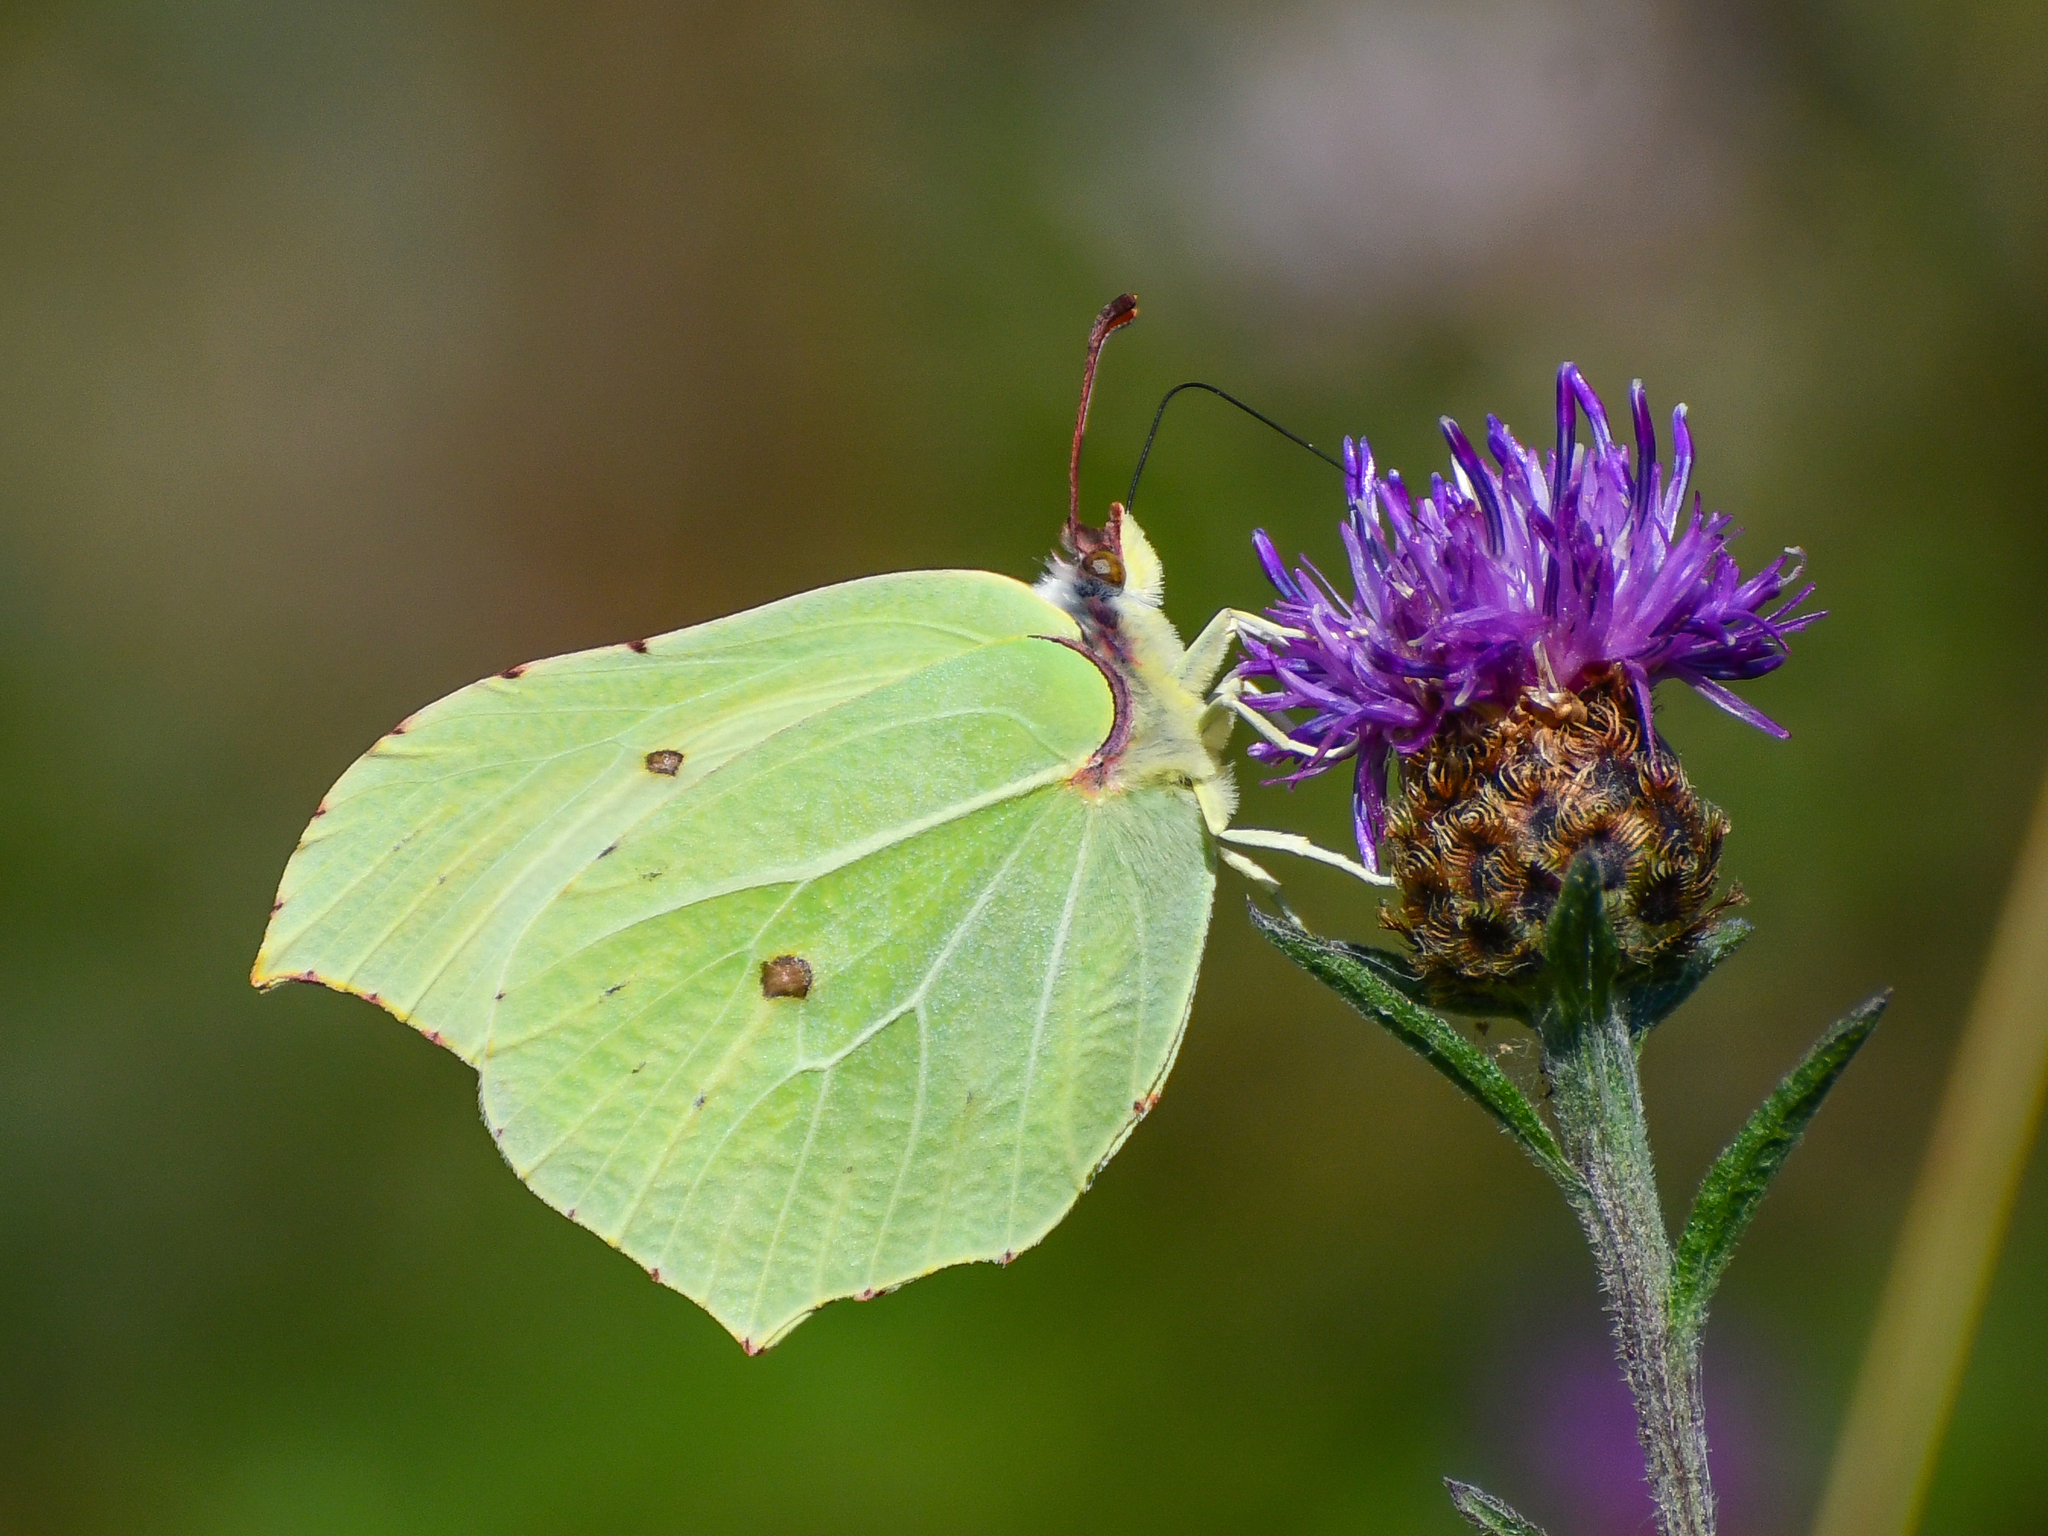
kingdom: Animalia
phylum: Arthropoda
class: Insecta
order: Lepidoptera
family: Pieridae
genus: Gonepteryx
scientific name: Gonepteryx rhamni
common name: Brimstone
